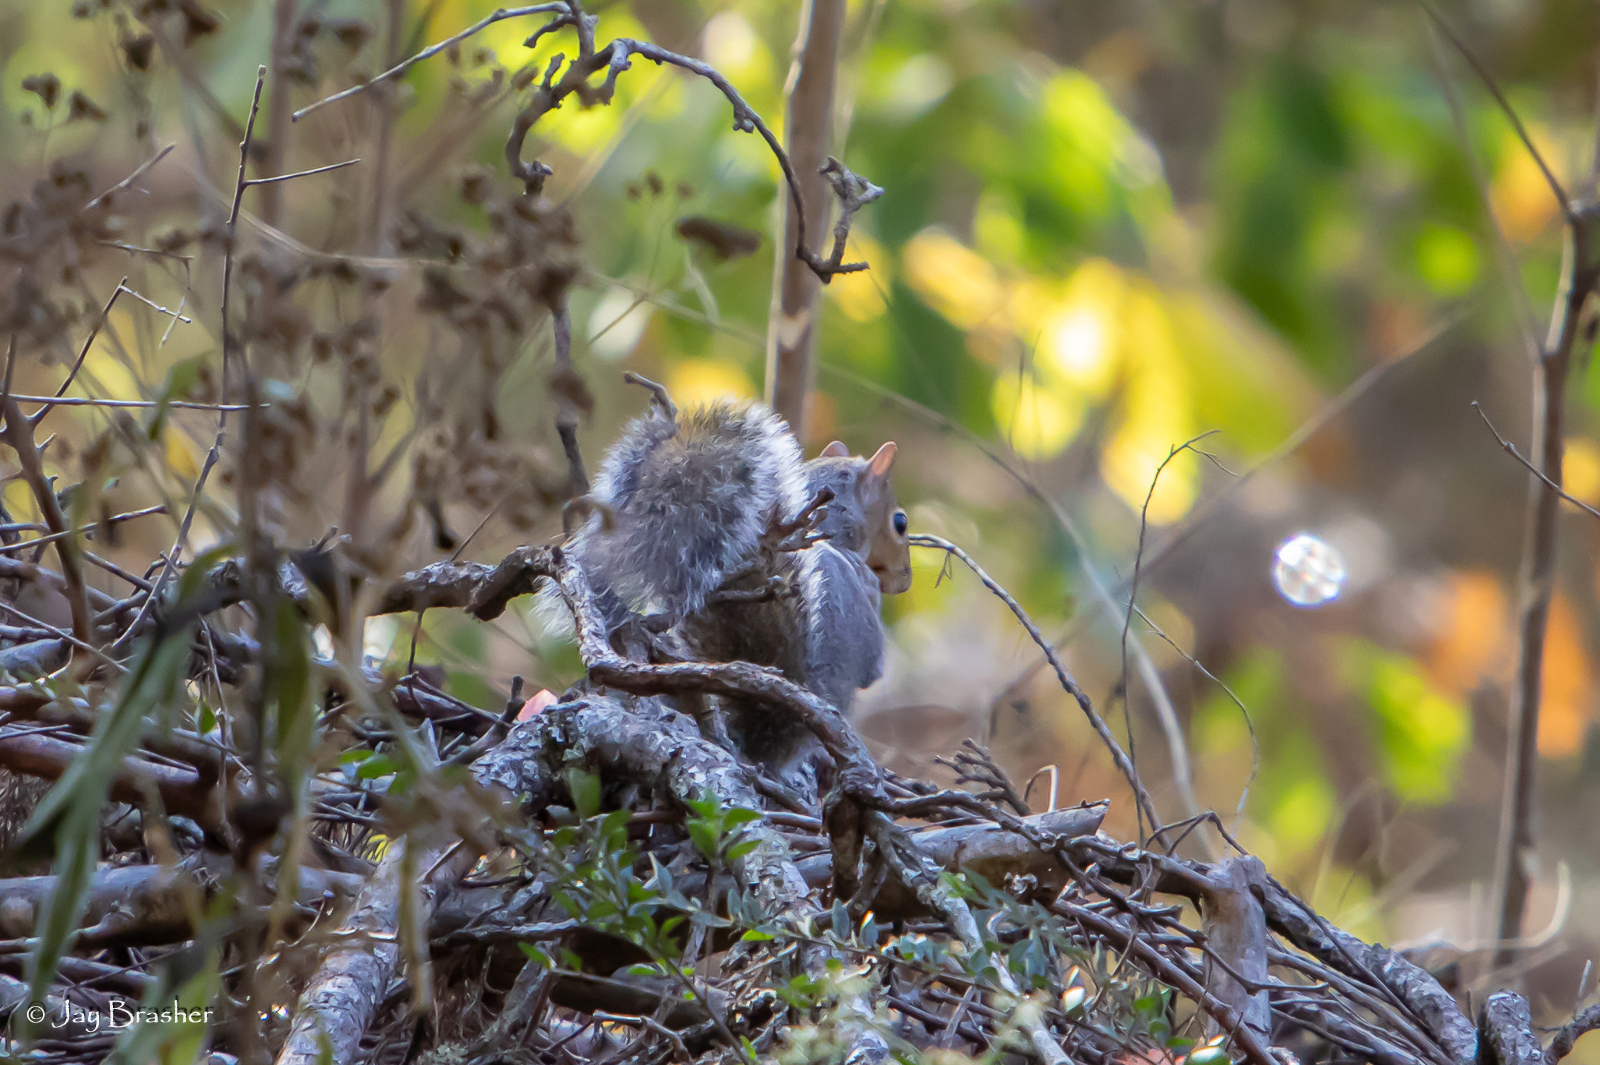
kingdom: Animalia
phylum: Chordata
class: Mammalia
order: Rodentia
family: Sciuridae
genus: Sciurus
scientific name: Sciurus carolinensis
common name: Eastern gray squirrel
